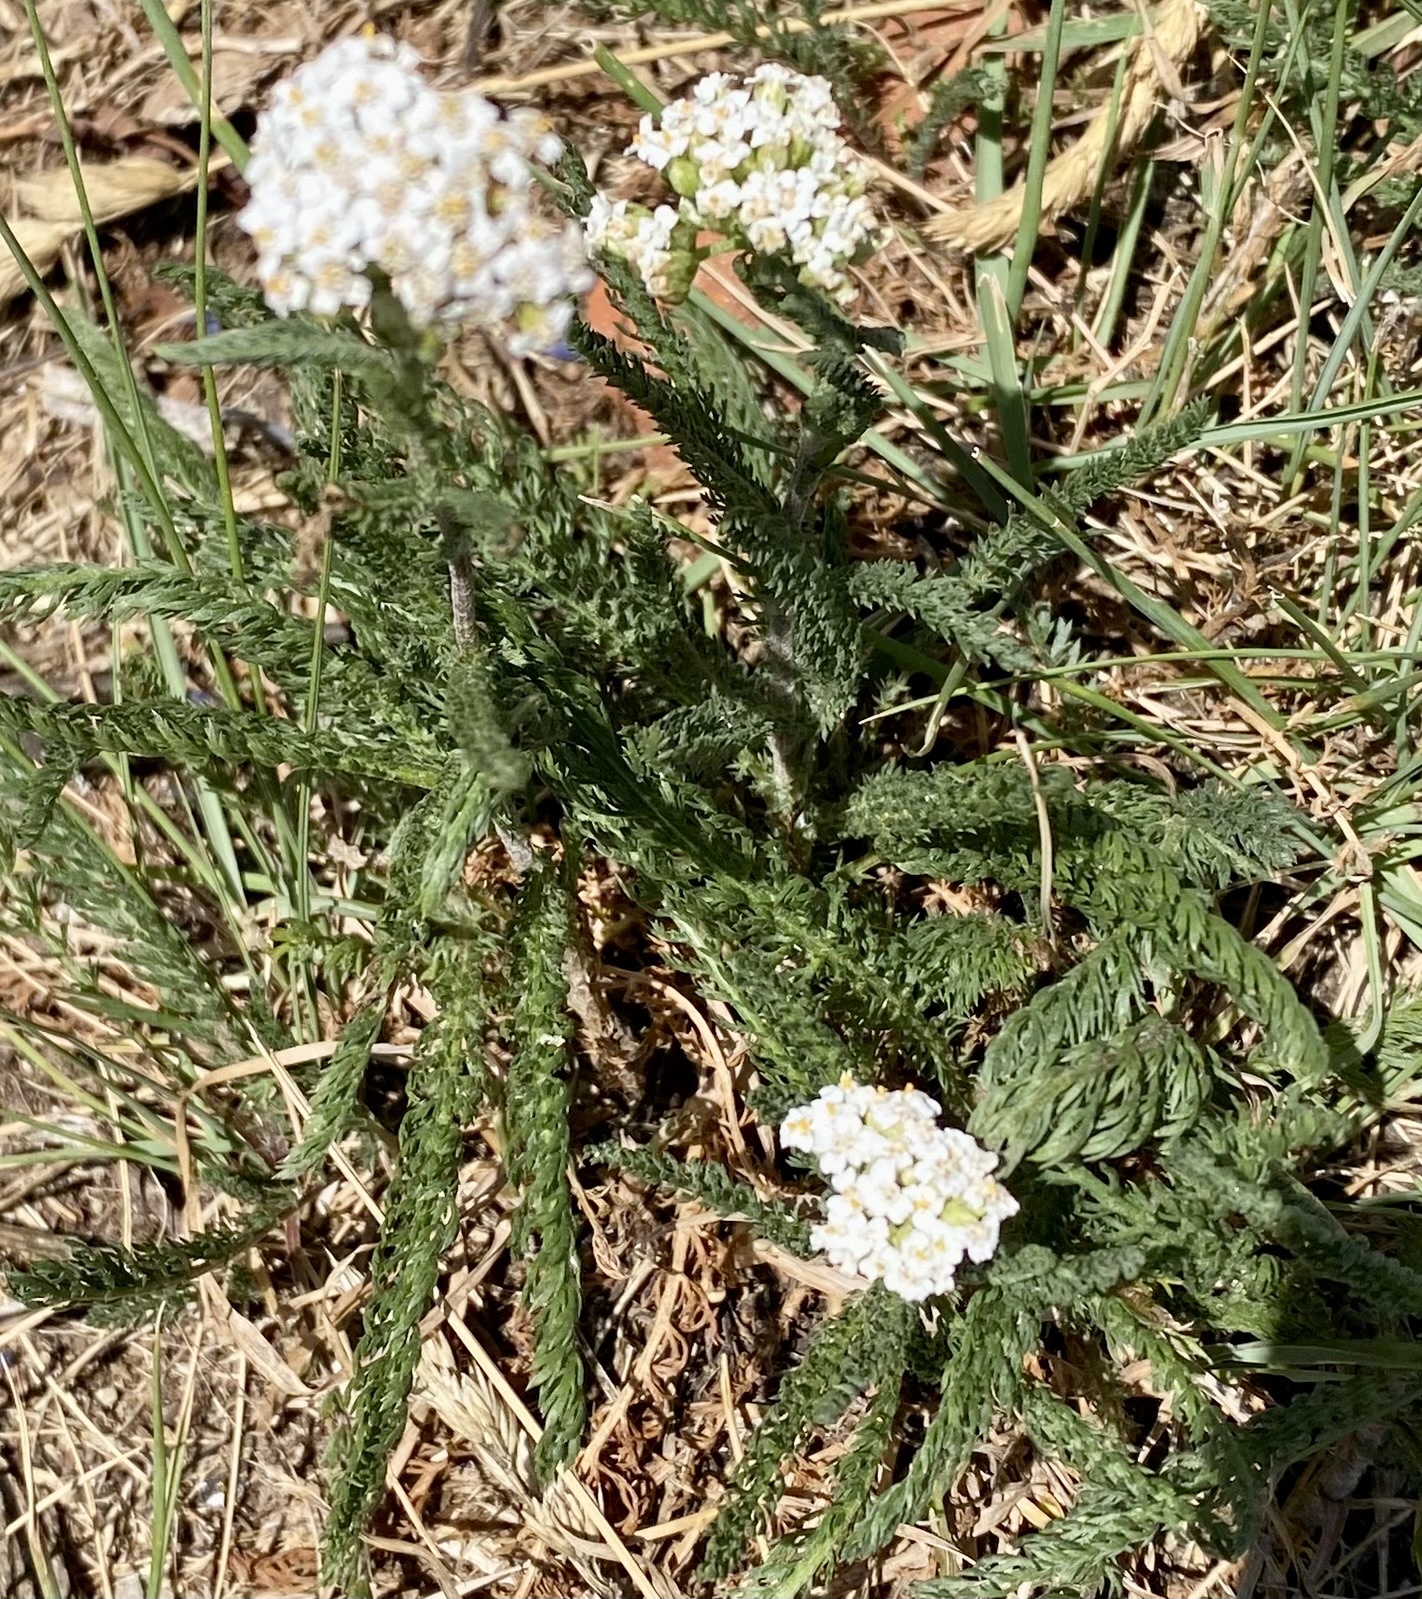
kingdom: Plantae
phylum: Tracheophyta
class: Magnoliopsida
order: Asterales
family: Asteraceae
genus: Achillea
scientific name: Achillea millefolium
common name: Yarrow
